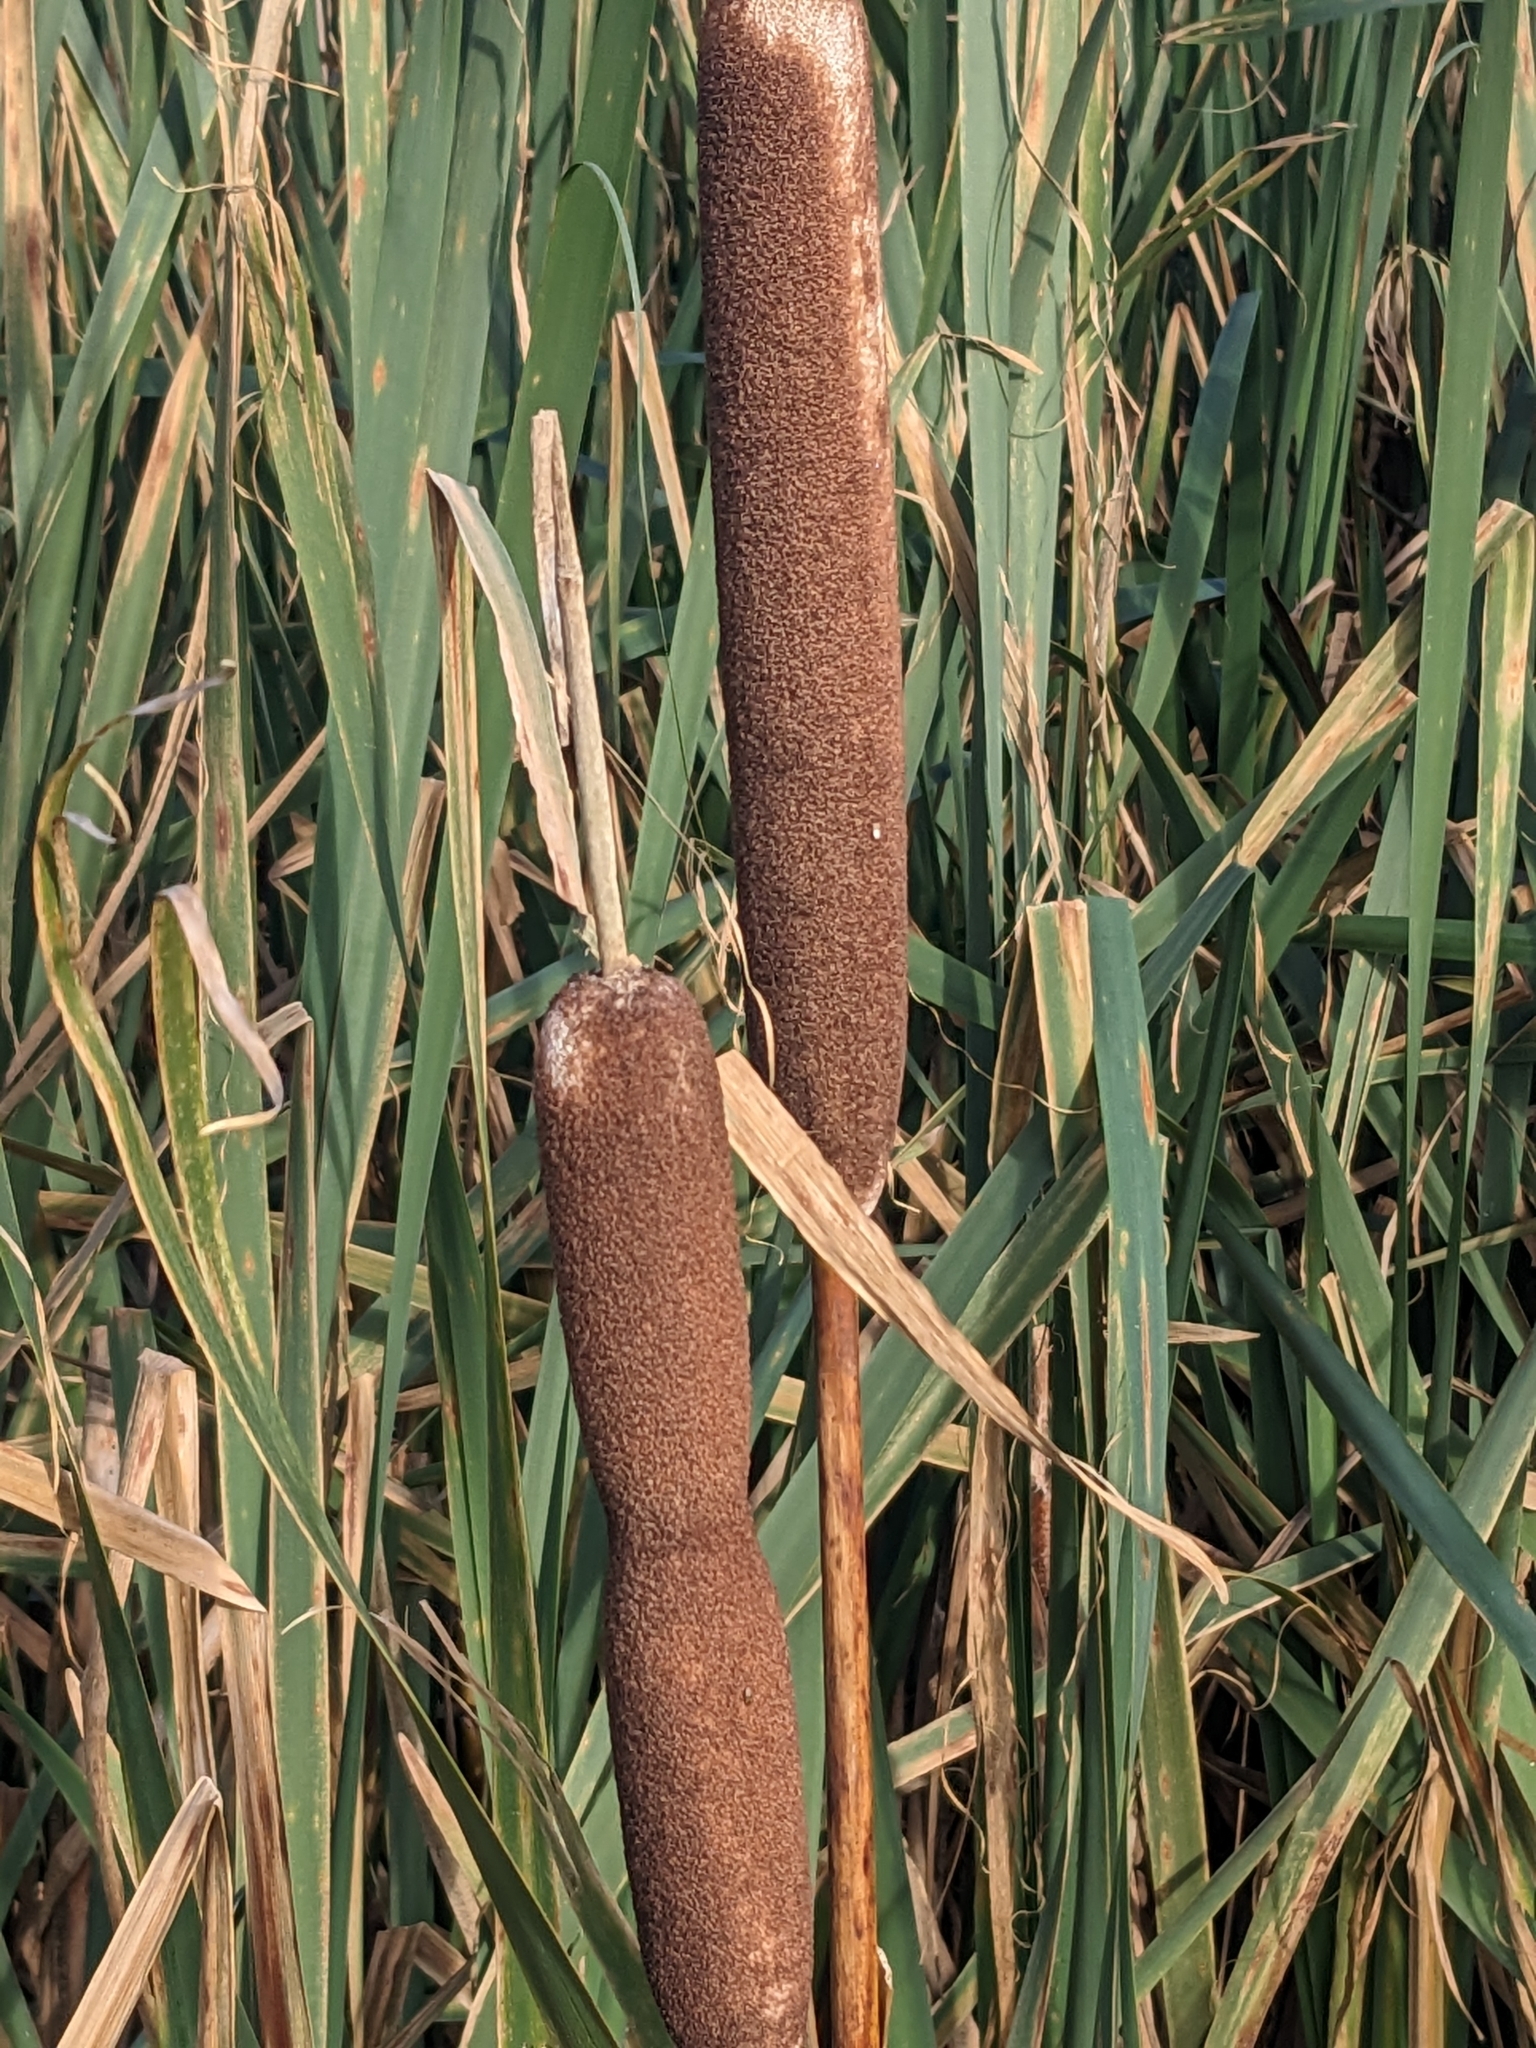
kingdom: Plantae
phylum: Tracheophyta
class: Liliopsida
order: Poales
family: Typhaceae
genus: Typha
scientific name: Typha latifolia
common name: Broadleaf cattail
